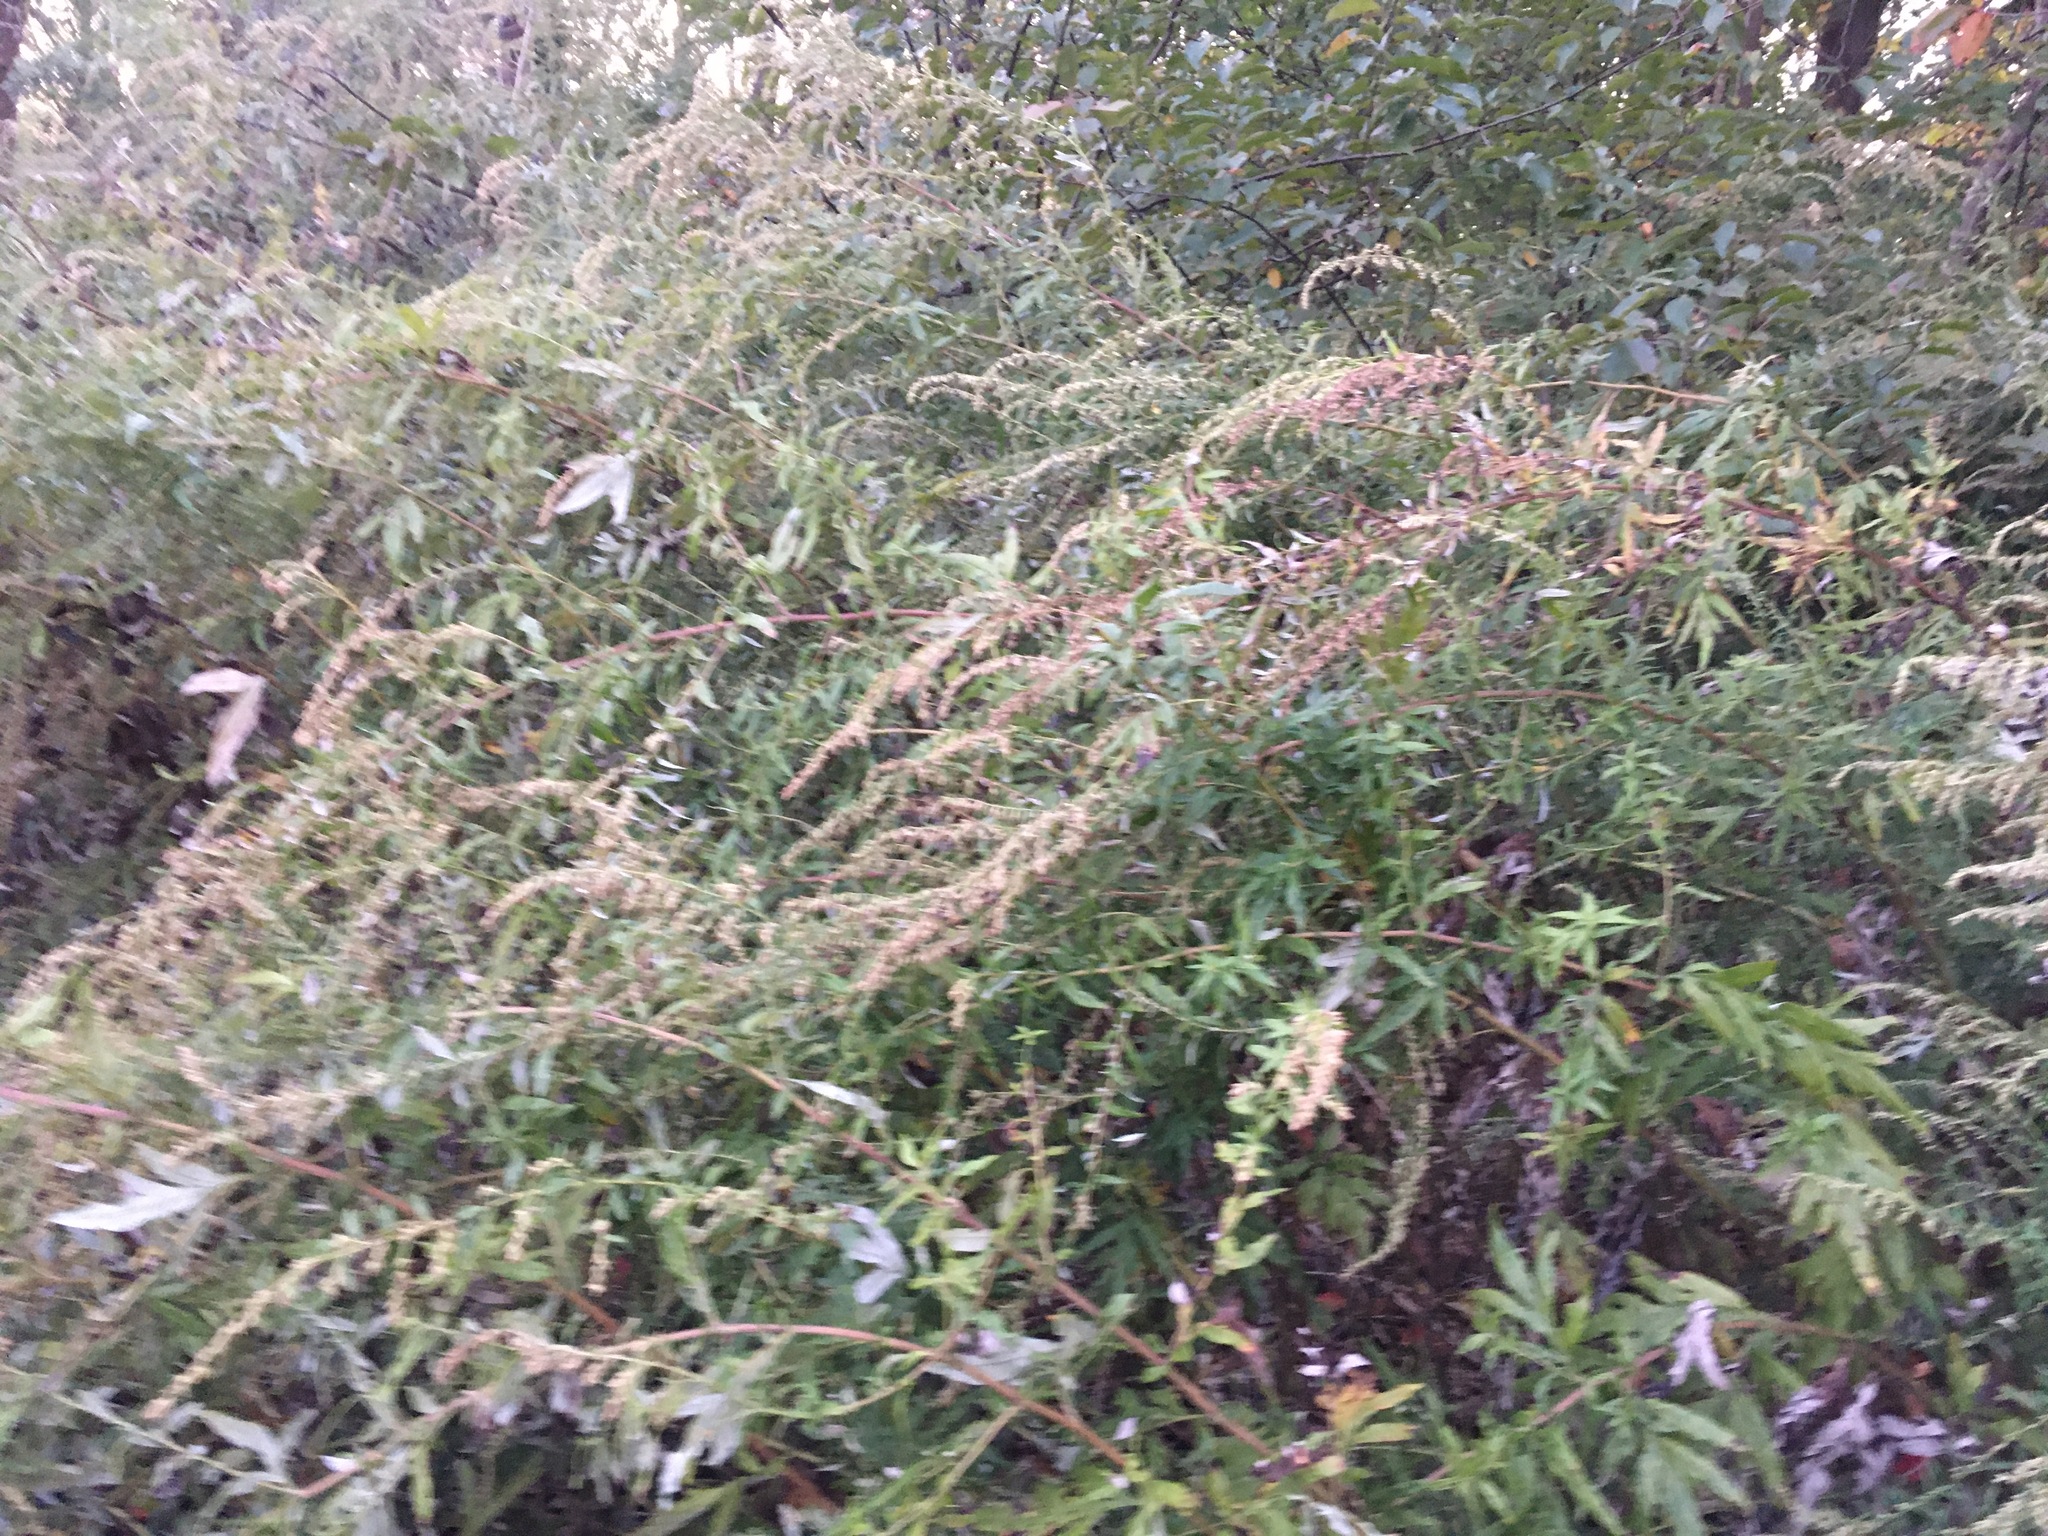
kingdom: Plantae
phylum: Tracheophyta
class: Magnoliopsida
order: Asterales
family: Asteraceae
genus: Artemisia
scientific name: Artemisia vulgaris
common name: Mugwort
